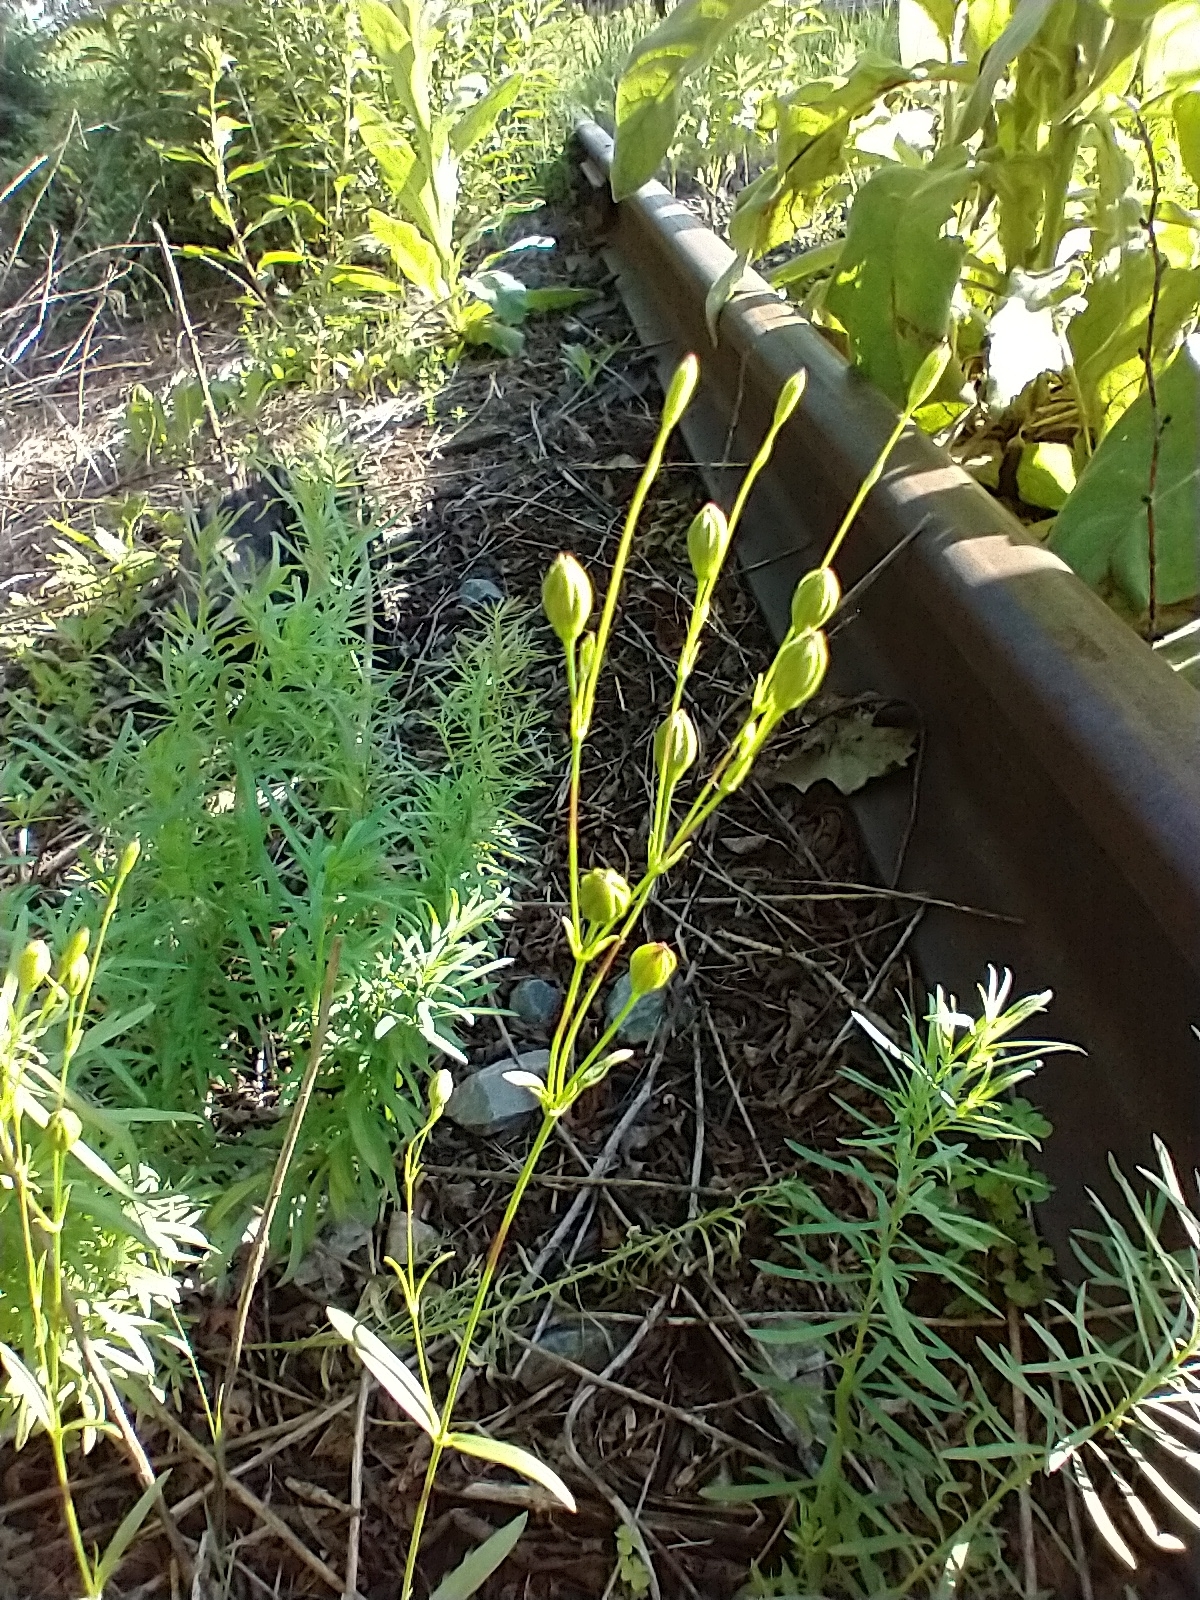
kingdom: Plantae
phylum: Tracheophyta
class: Magnoliopsida
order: Caryophyllales
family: Caryophyllaceae
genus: Silene
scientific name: Silene antirrhina
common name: Sleepy catchfly
